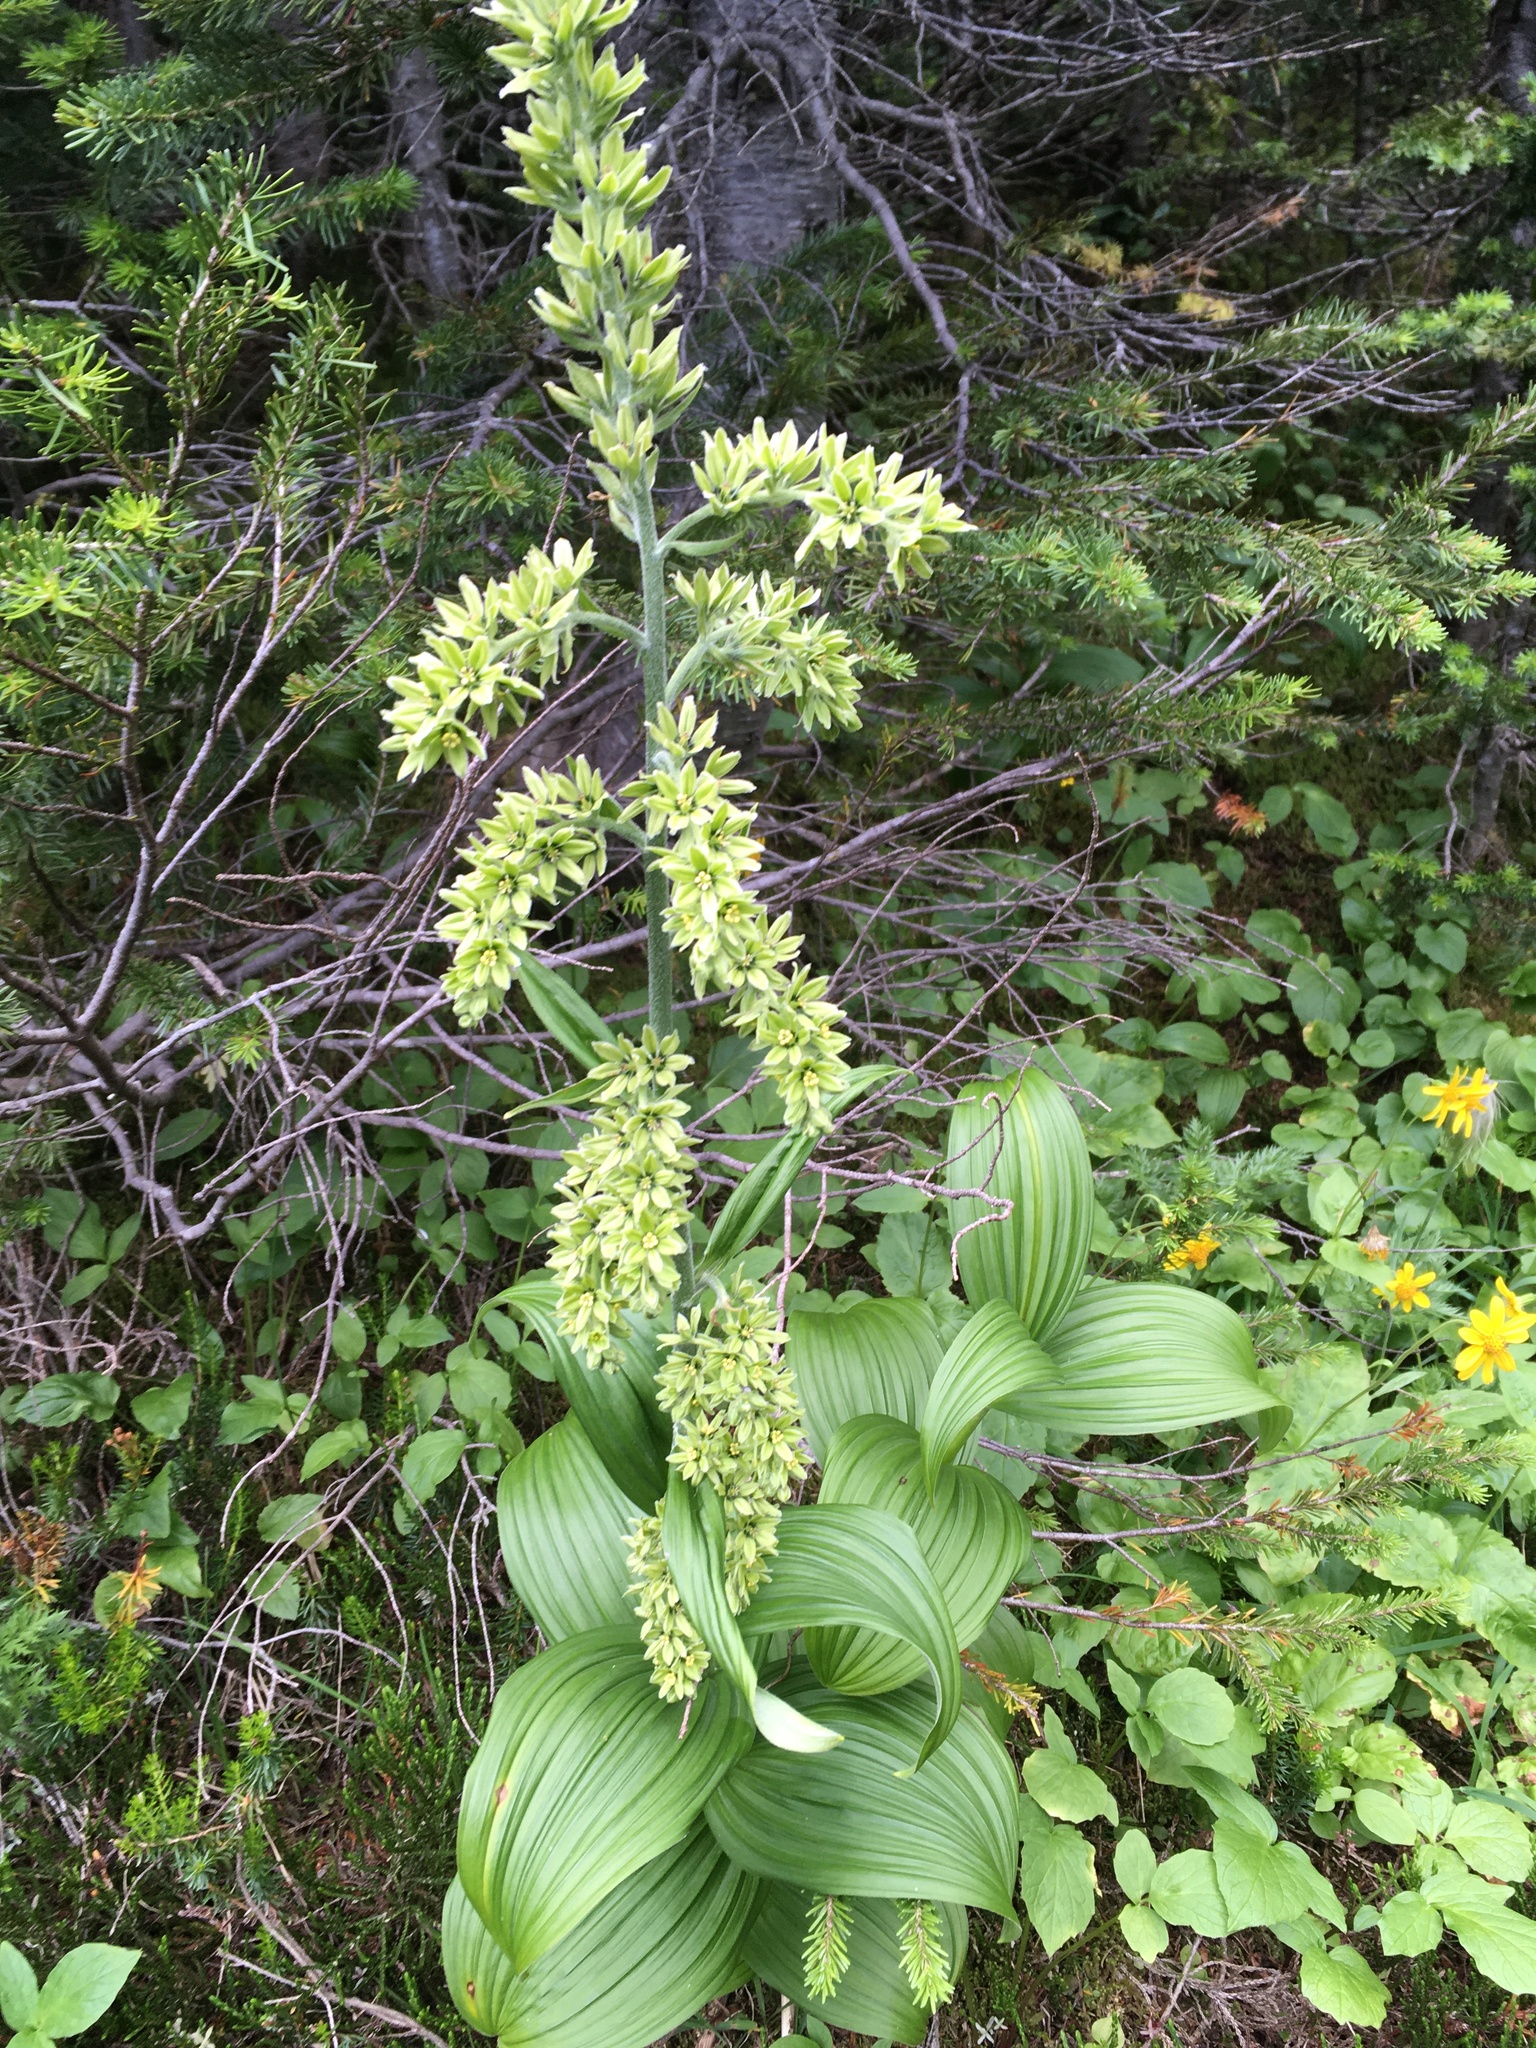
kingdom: Plantae
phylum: Tracheophyta
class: Liliopsida
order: Liliales
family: Melanthiaceae
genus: Veratrum
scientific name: Veratrum viride
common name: American false hellebore
